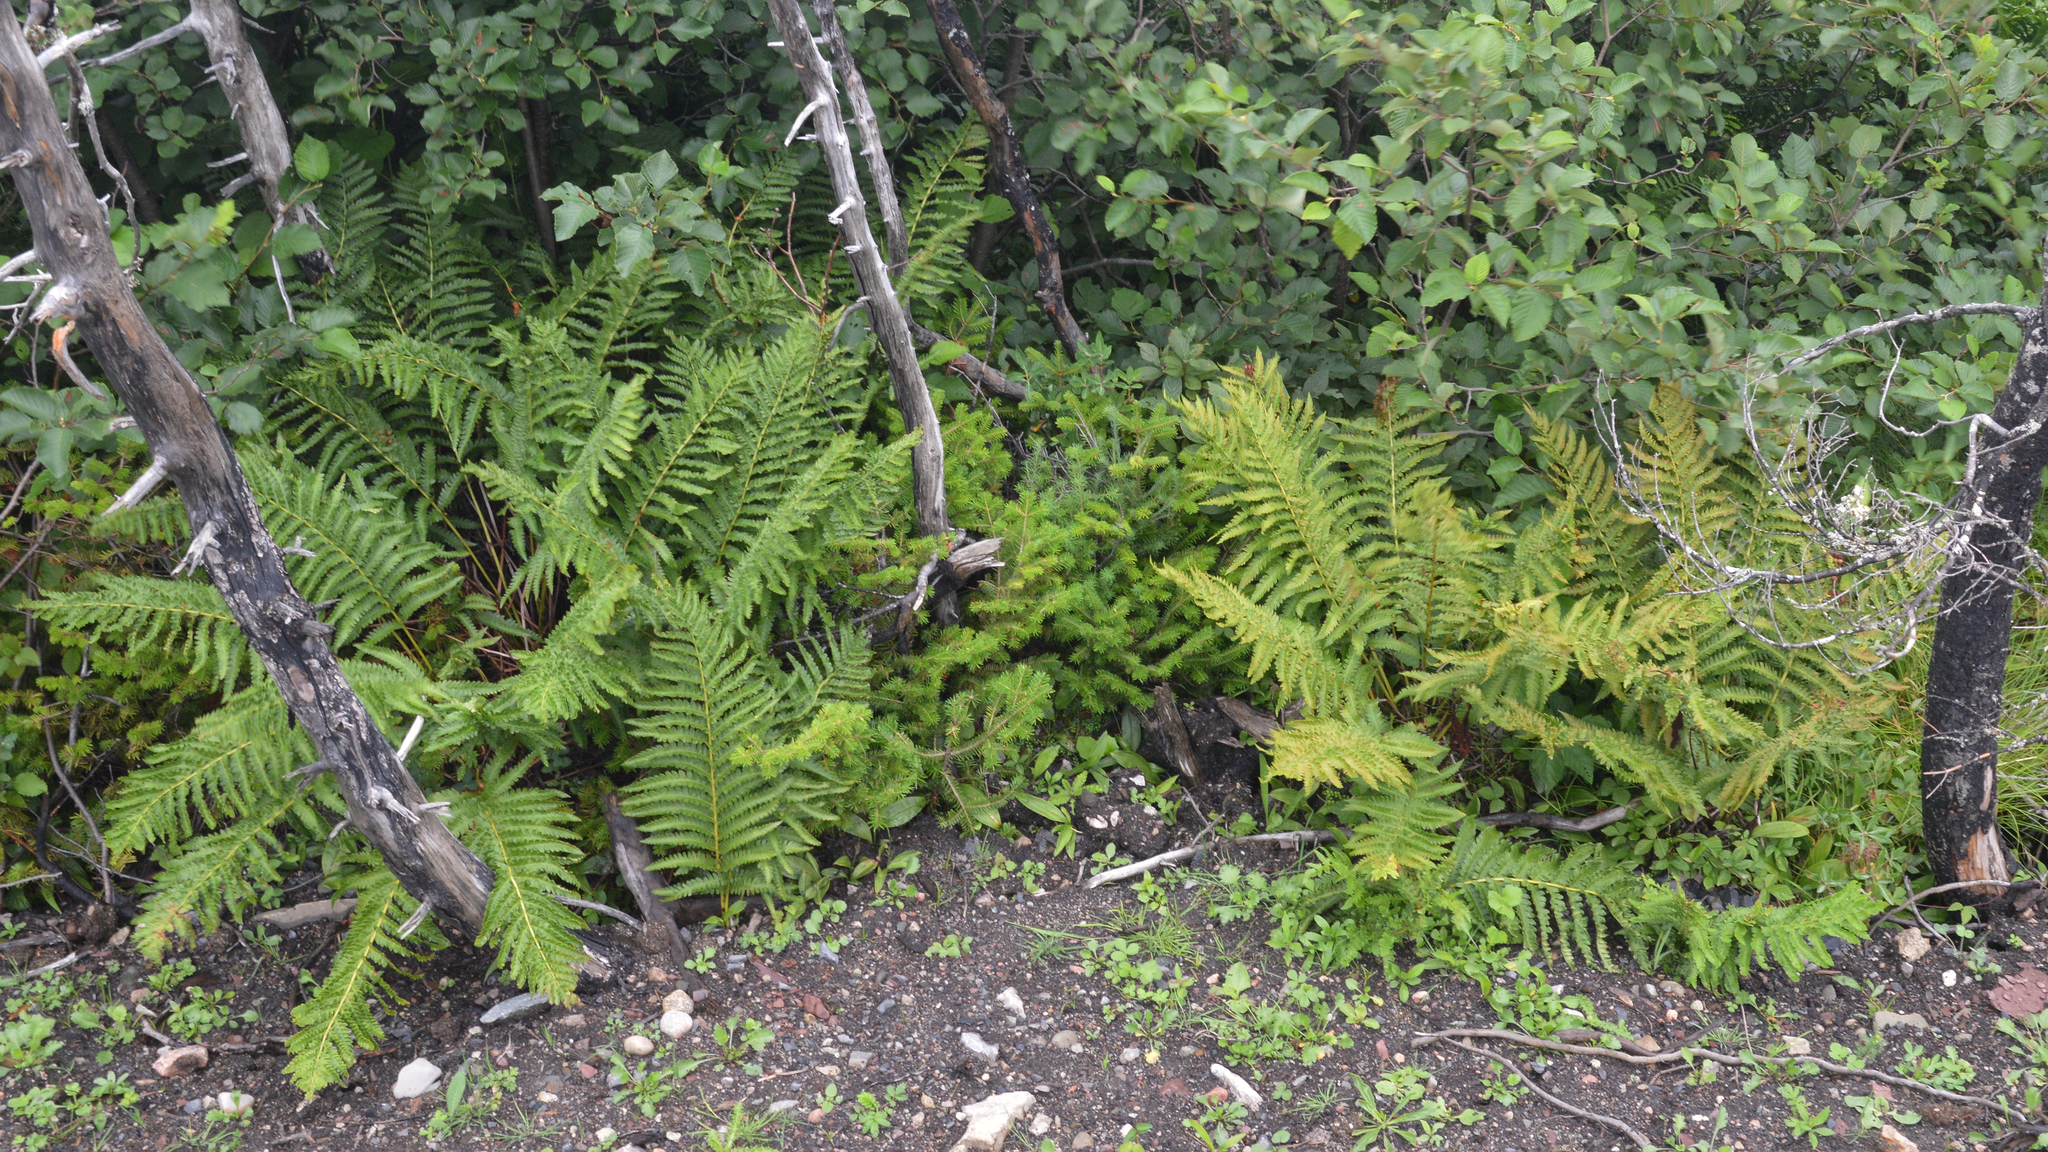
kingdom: Plantae
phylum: Tracheophyta
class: Polypodiopsida
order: Osmundales
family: Osmundaceae
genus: Osmundastrum
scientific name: Osmundastrum cinnamomeum
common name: Cinnamon fern
